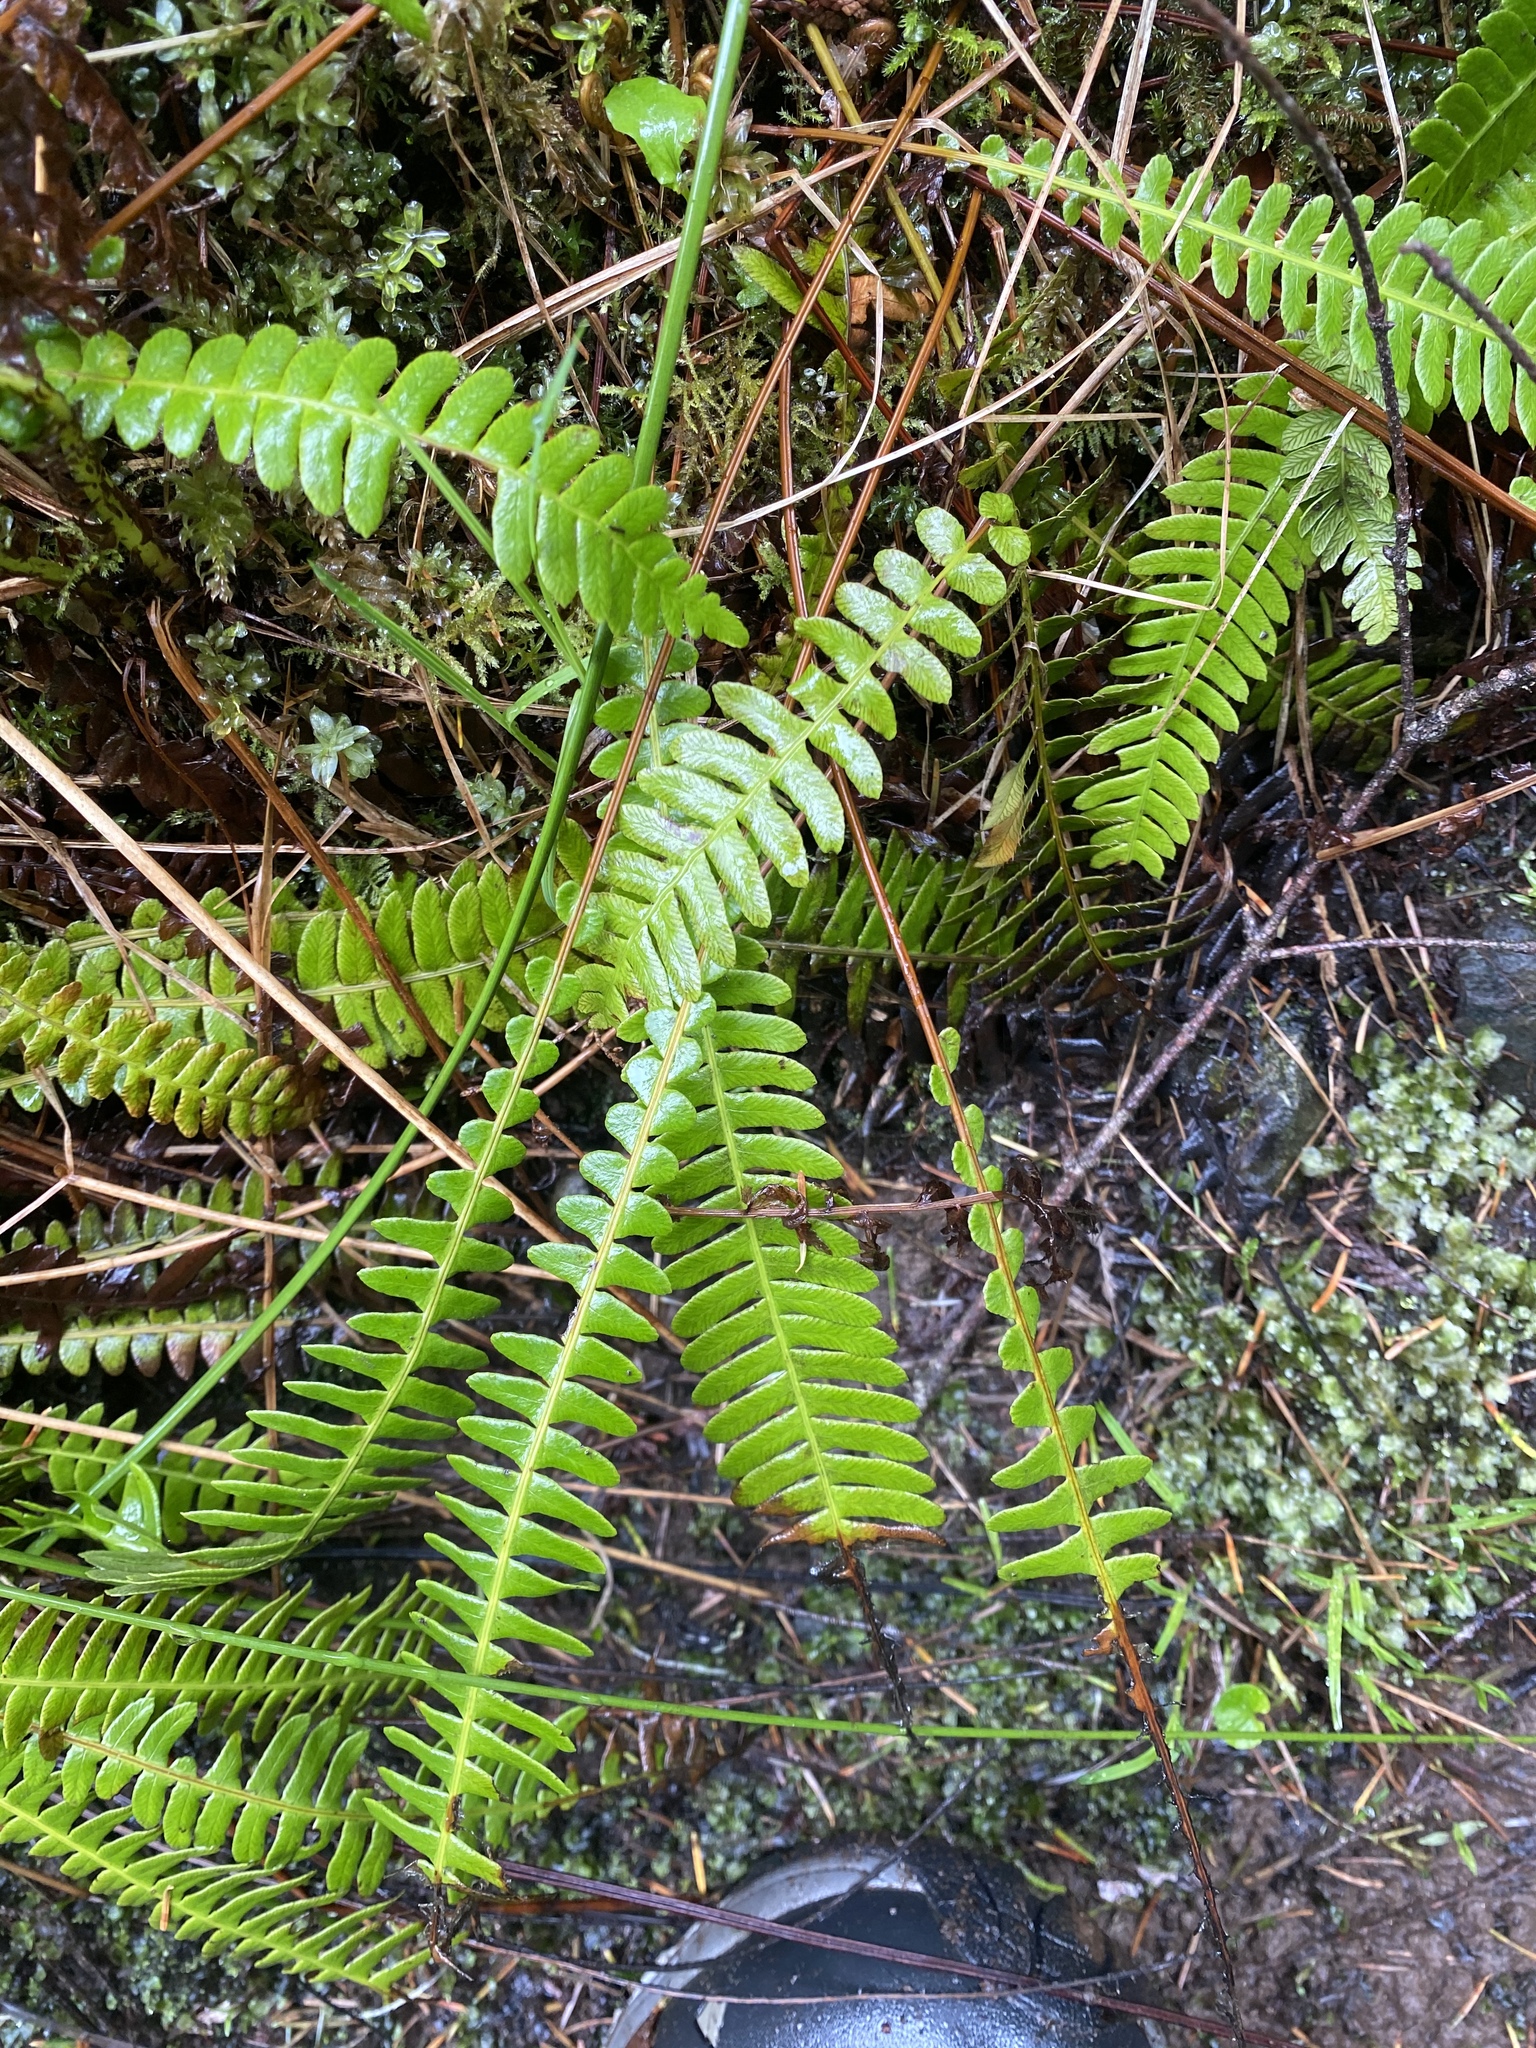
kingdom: Plantae
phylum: Tracheophyta
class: Polypodiopsida
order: Polypodiales
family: Blechnaceae
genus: Struthiopteris
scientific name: Struthiopteris spicant
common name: Deer fern
